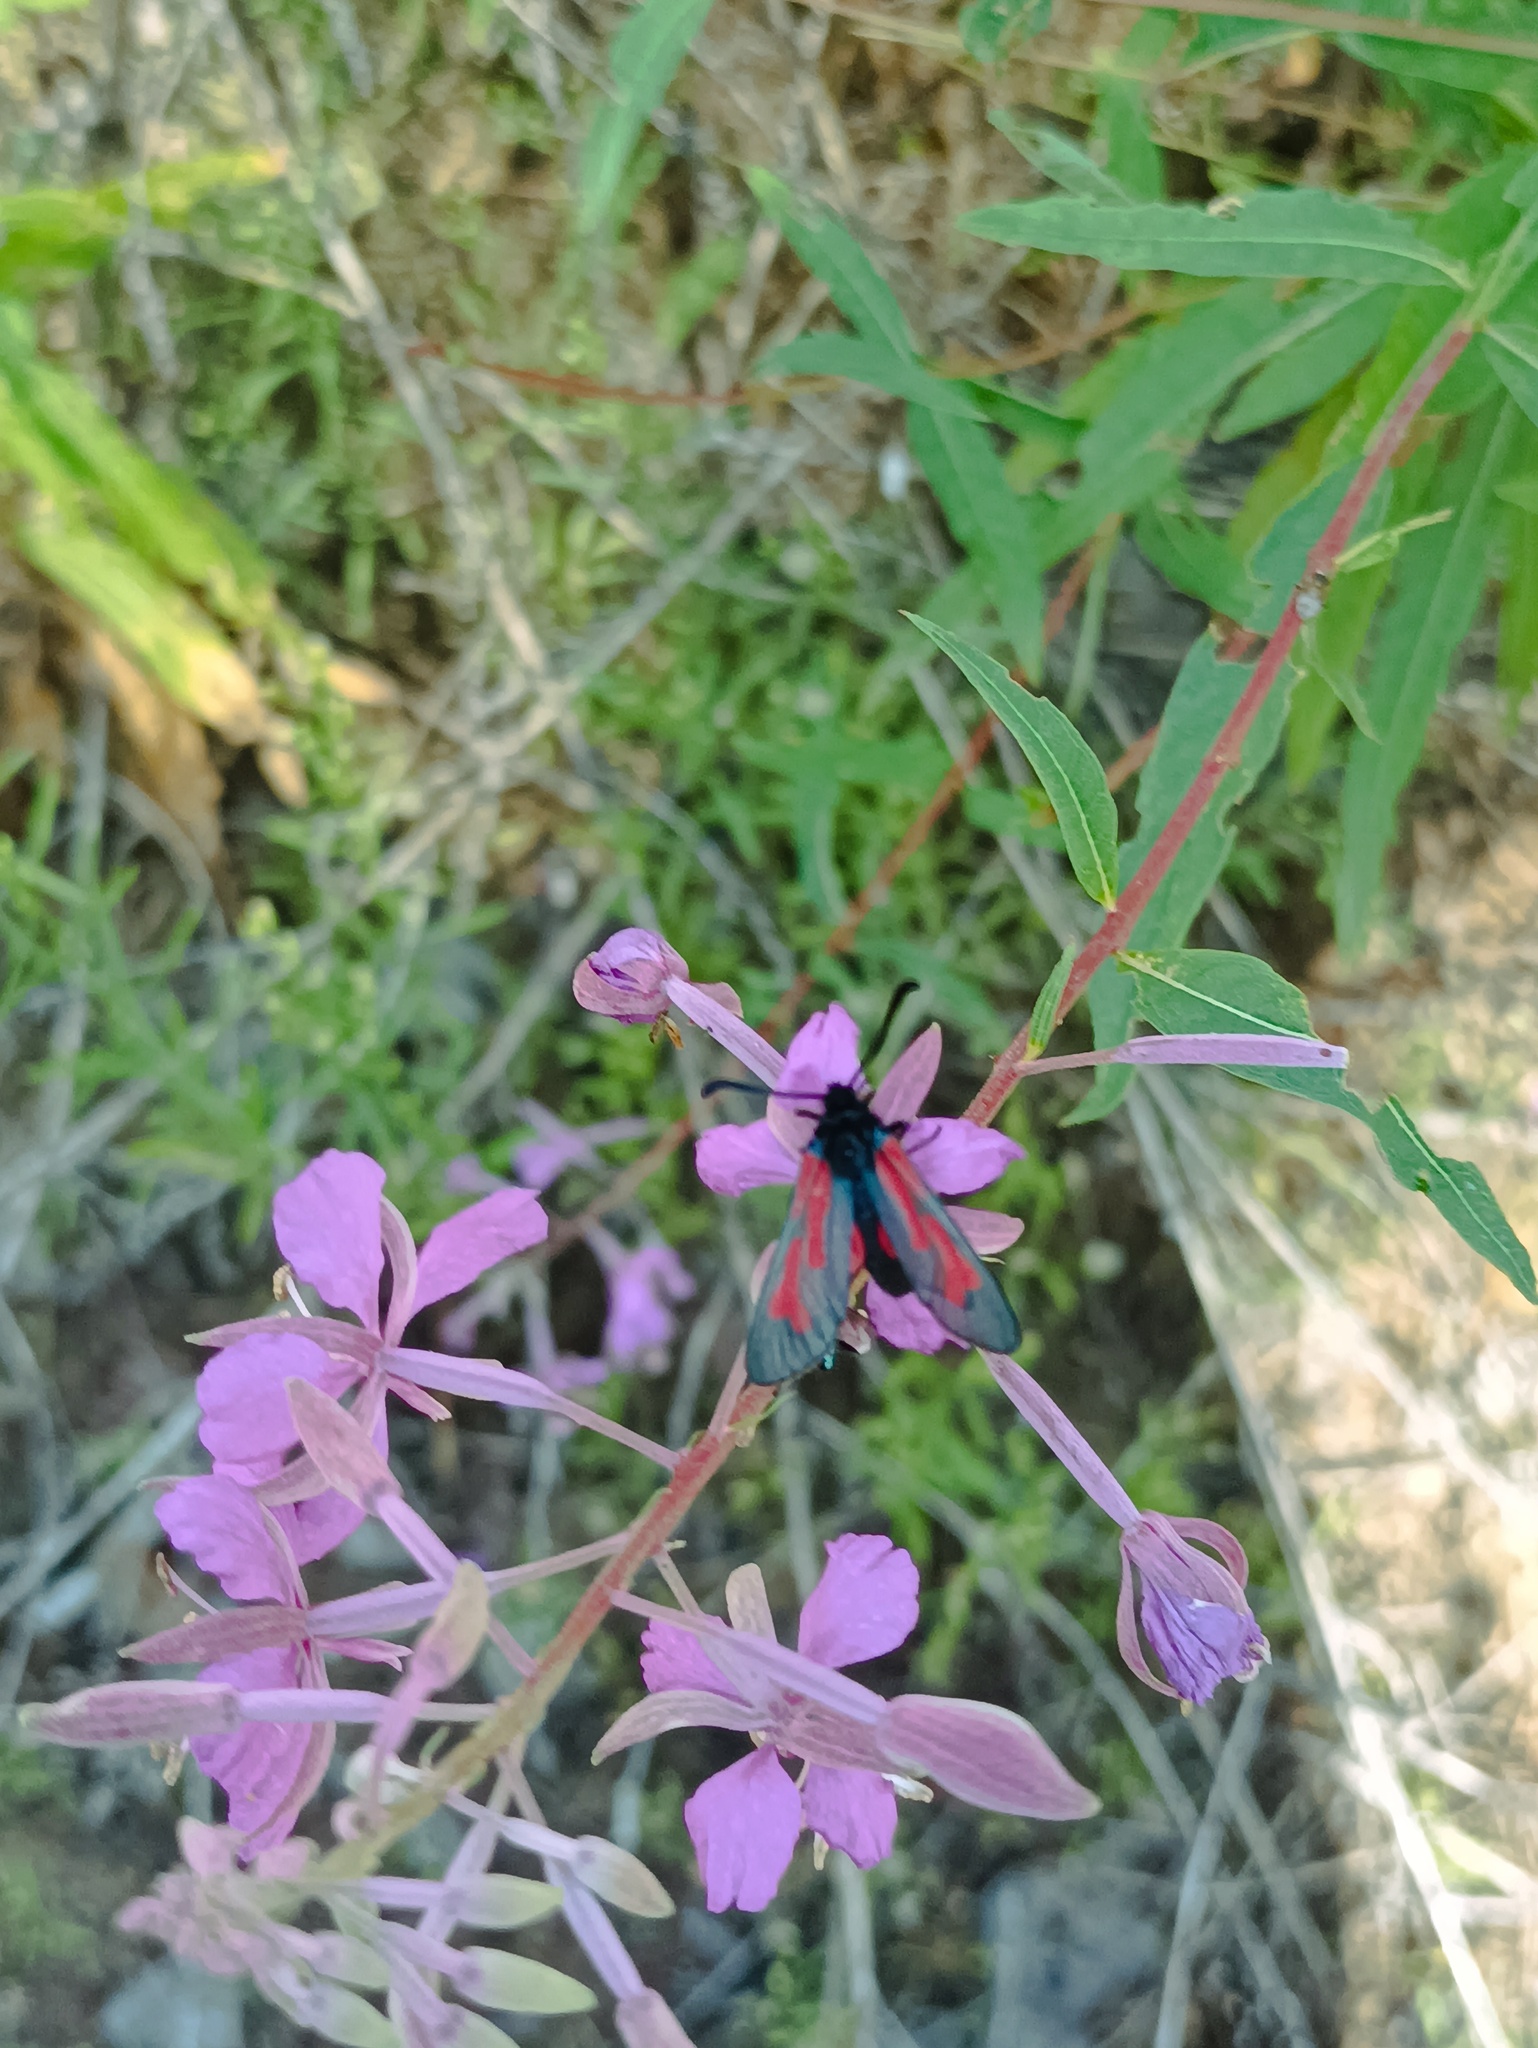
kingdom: Animalia
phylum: Arthropoda
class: Insecta
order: Lepidoptera
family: Zygaenidae
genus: Zygaena
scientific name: Zygaena minos
